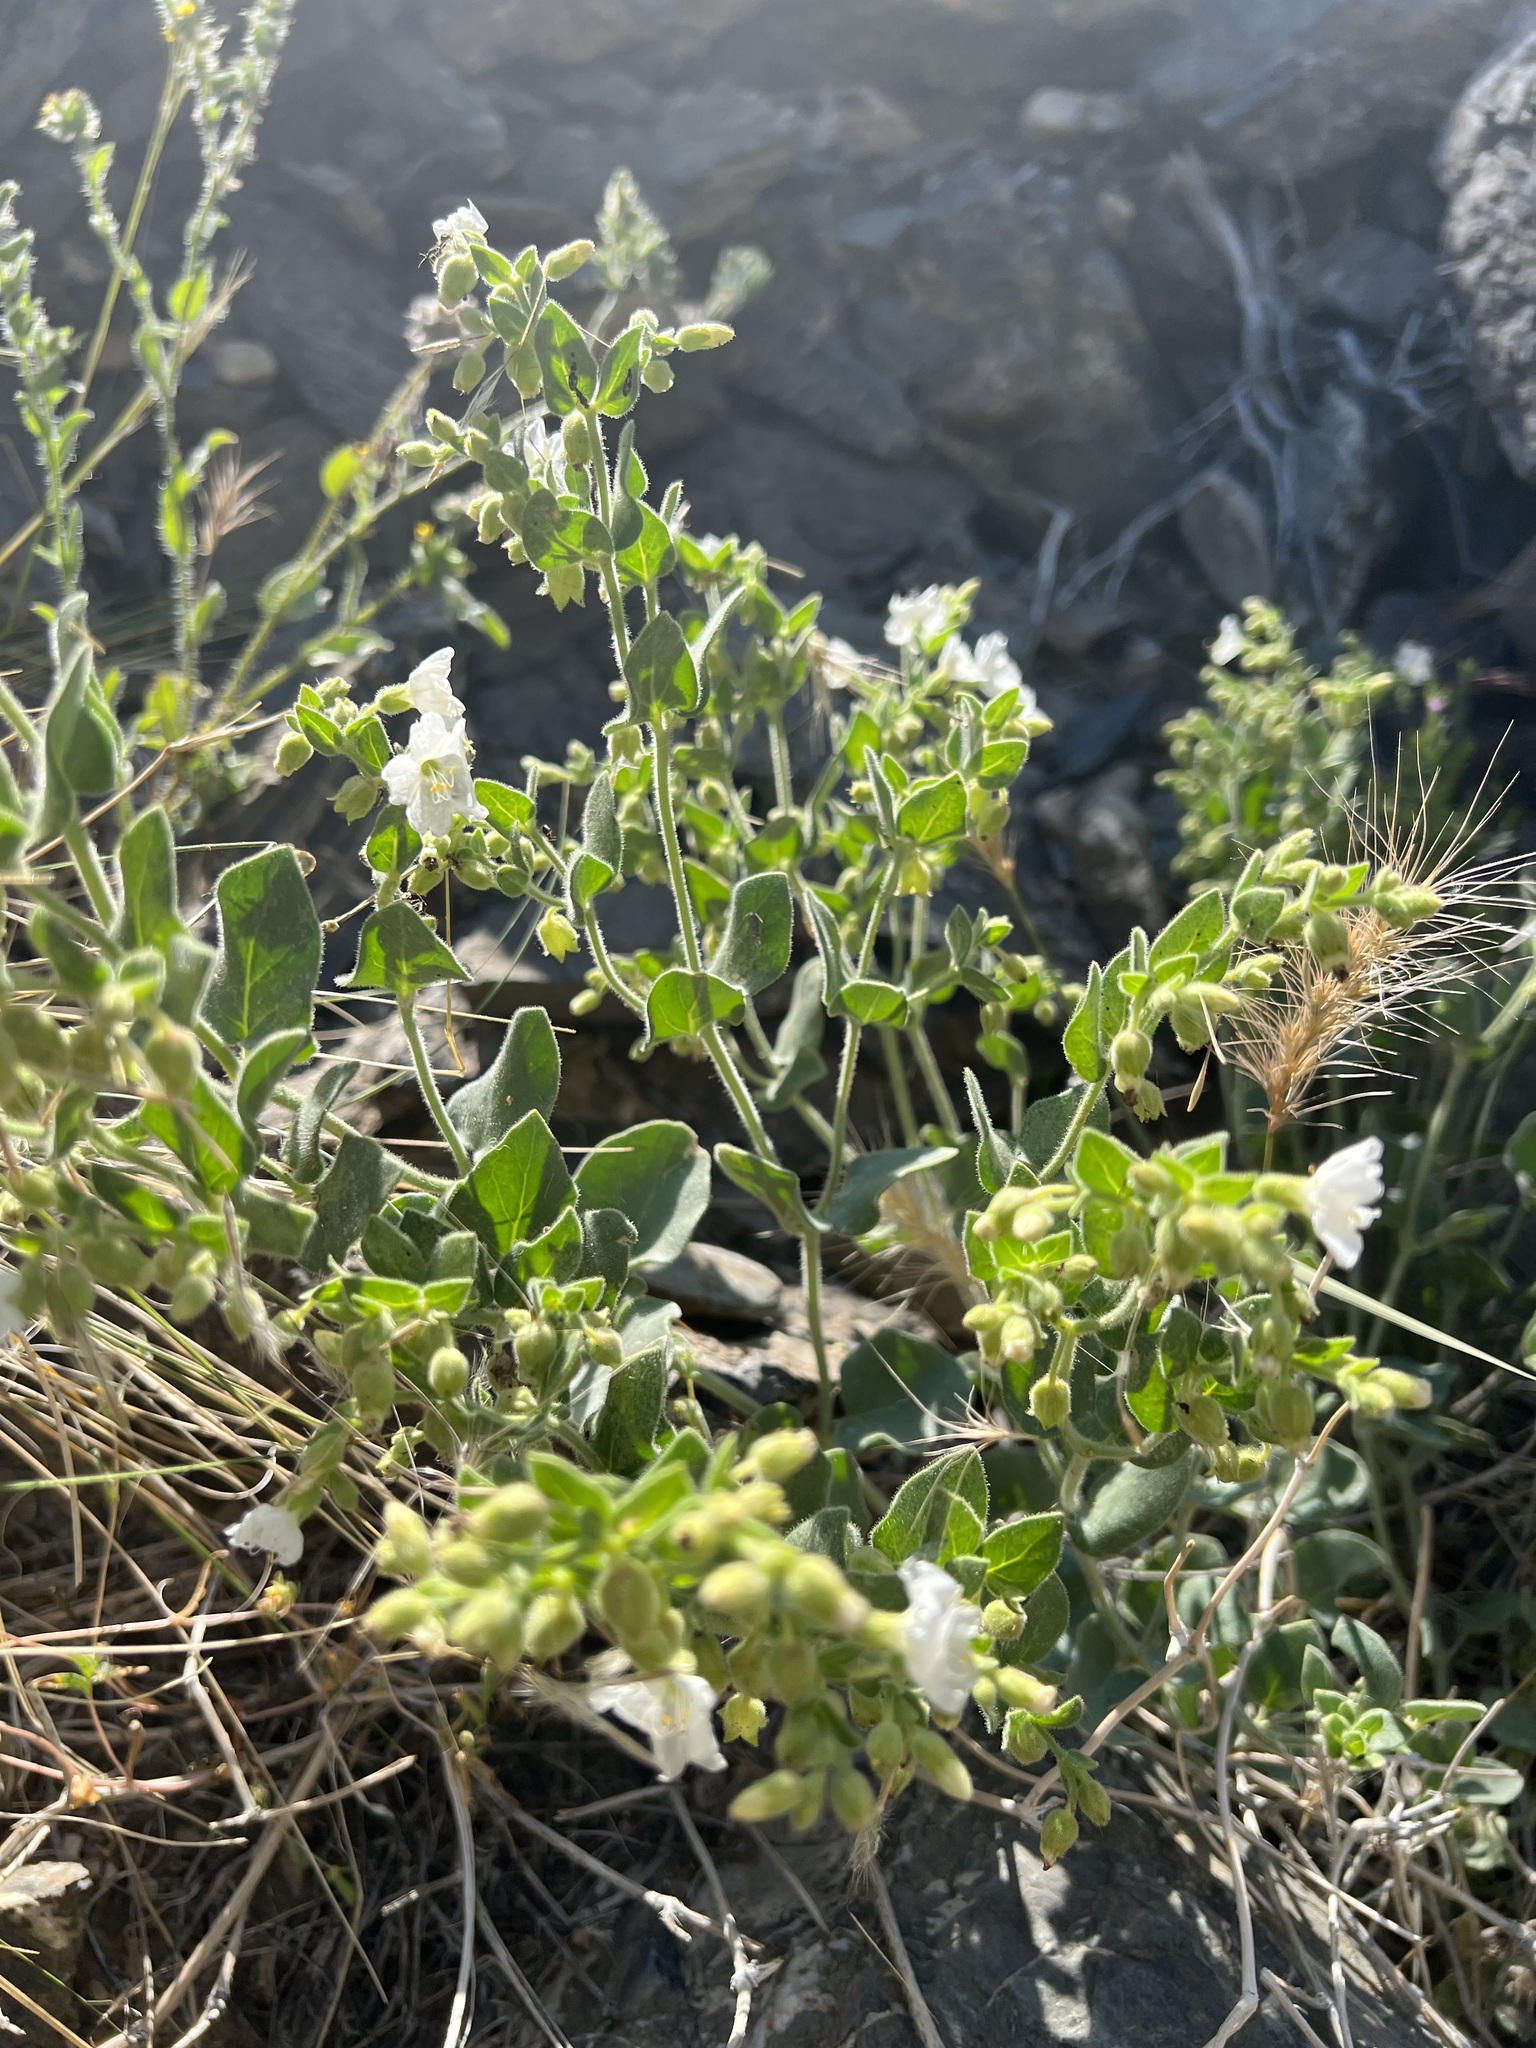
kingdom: Plantae
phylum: Tracheophyta
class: Magnoliopsida
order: Caryophyllales
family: Nyctaginaceae
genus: Mirabilis
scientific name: Mirabilis laevis
